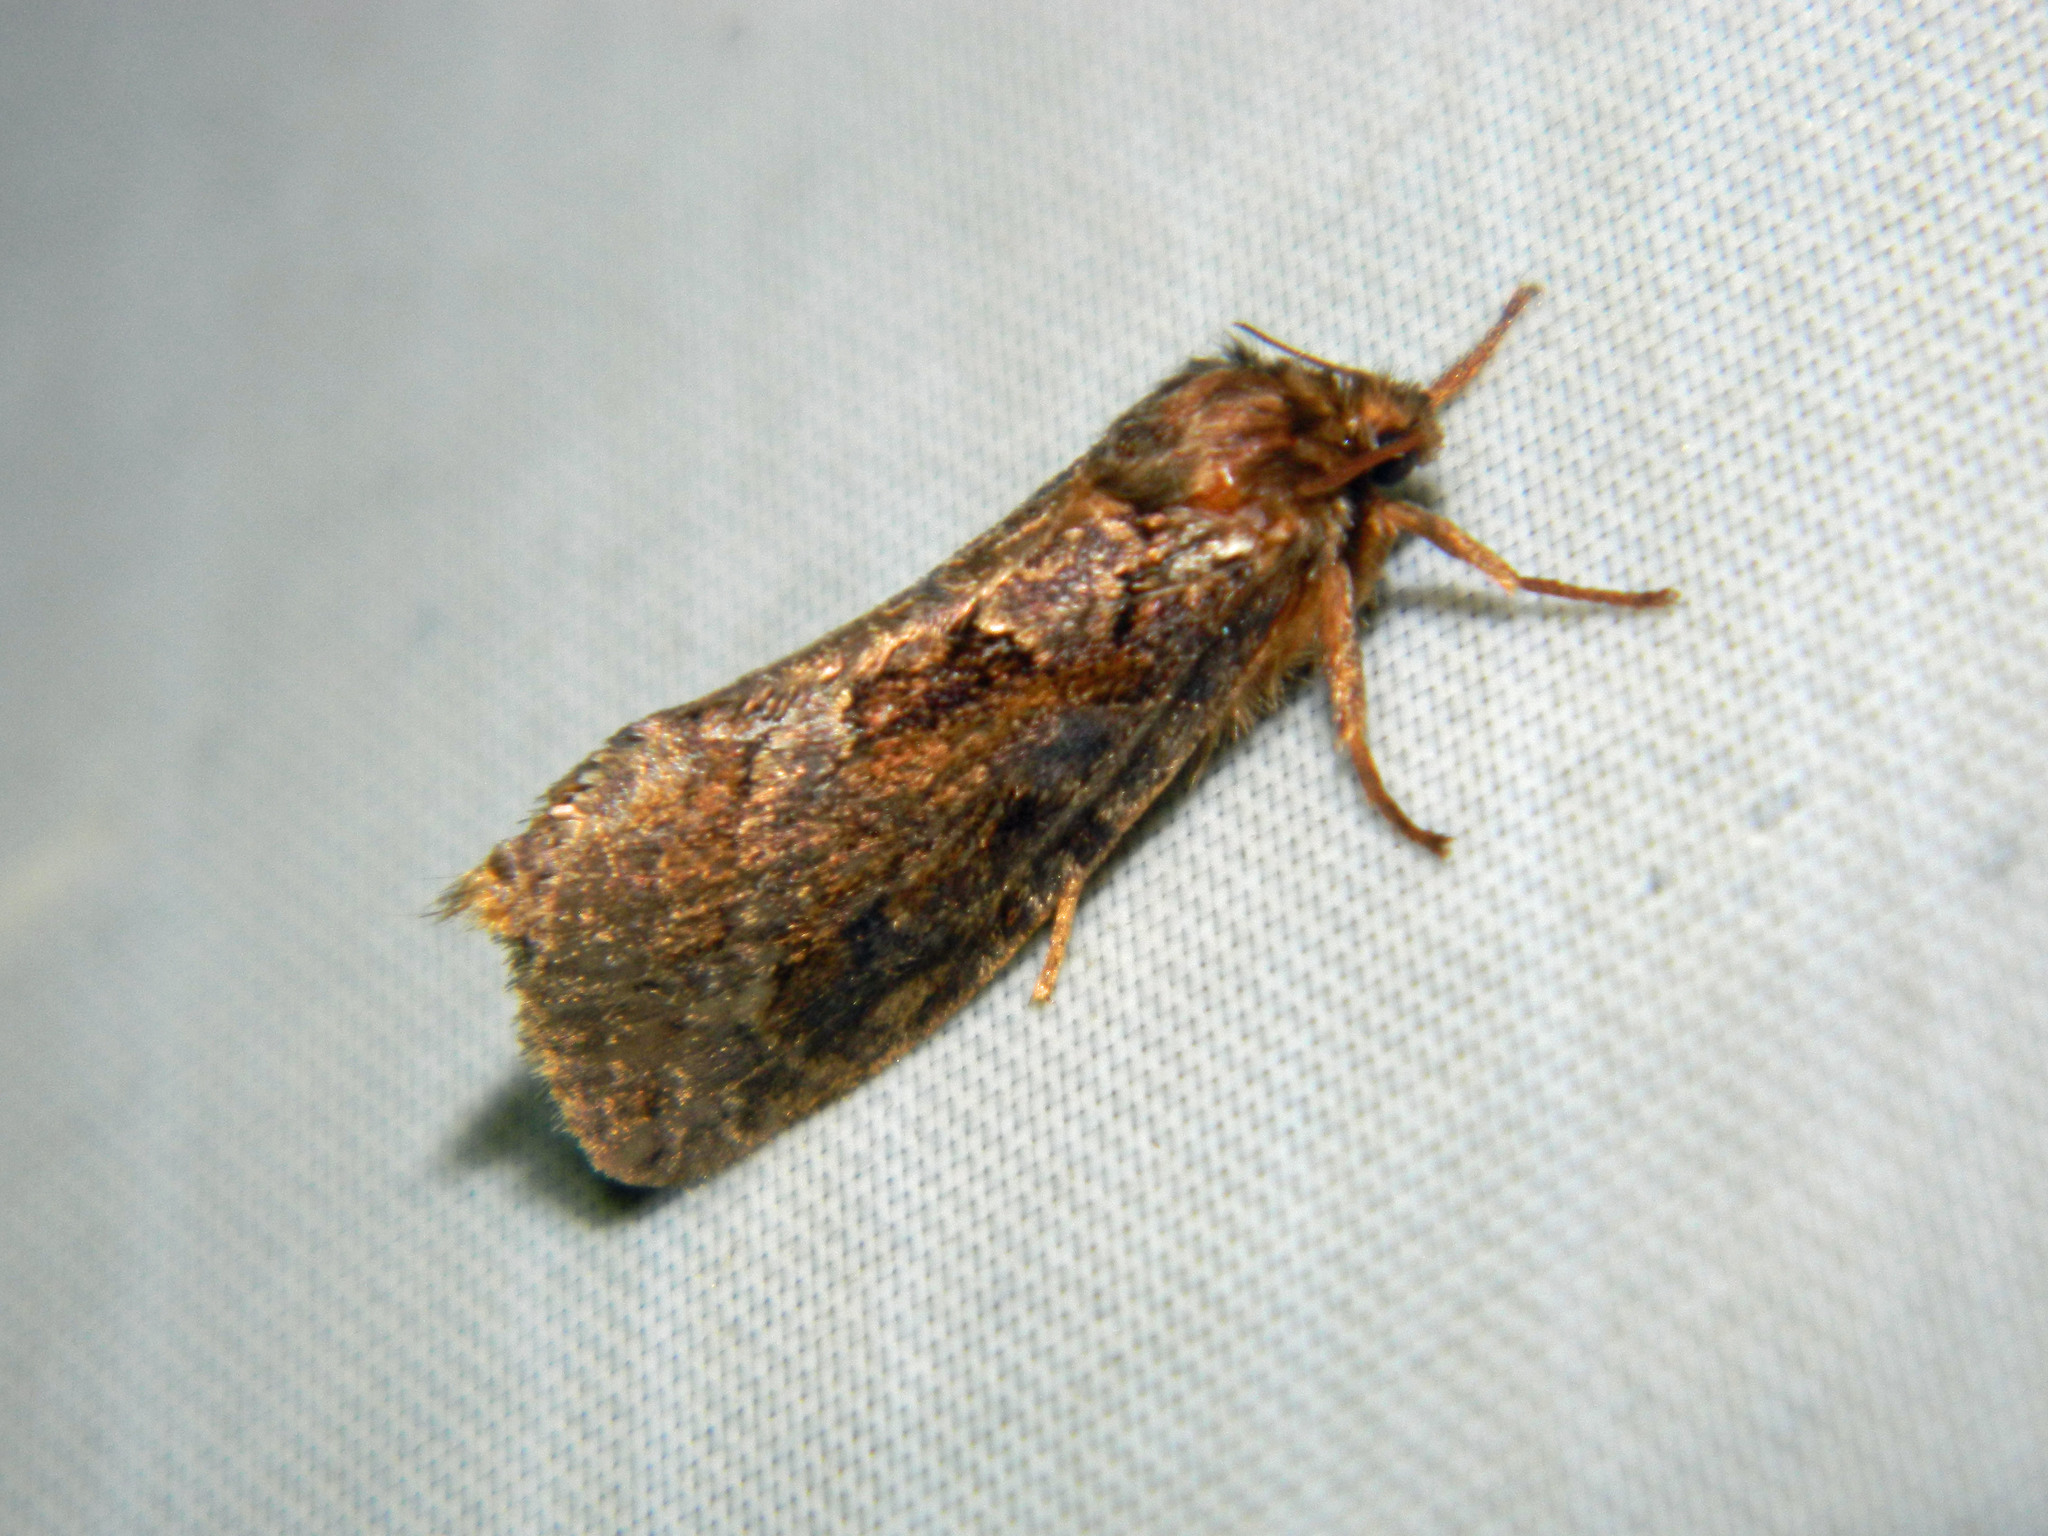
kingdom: Animalia
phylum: Arthropoda
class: Insecta
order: Lepidoptera
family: Hepialidae
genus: Korscheltellus
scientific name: Korscheltellus gracilis
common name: Conifer swift moth
